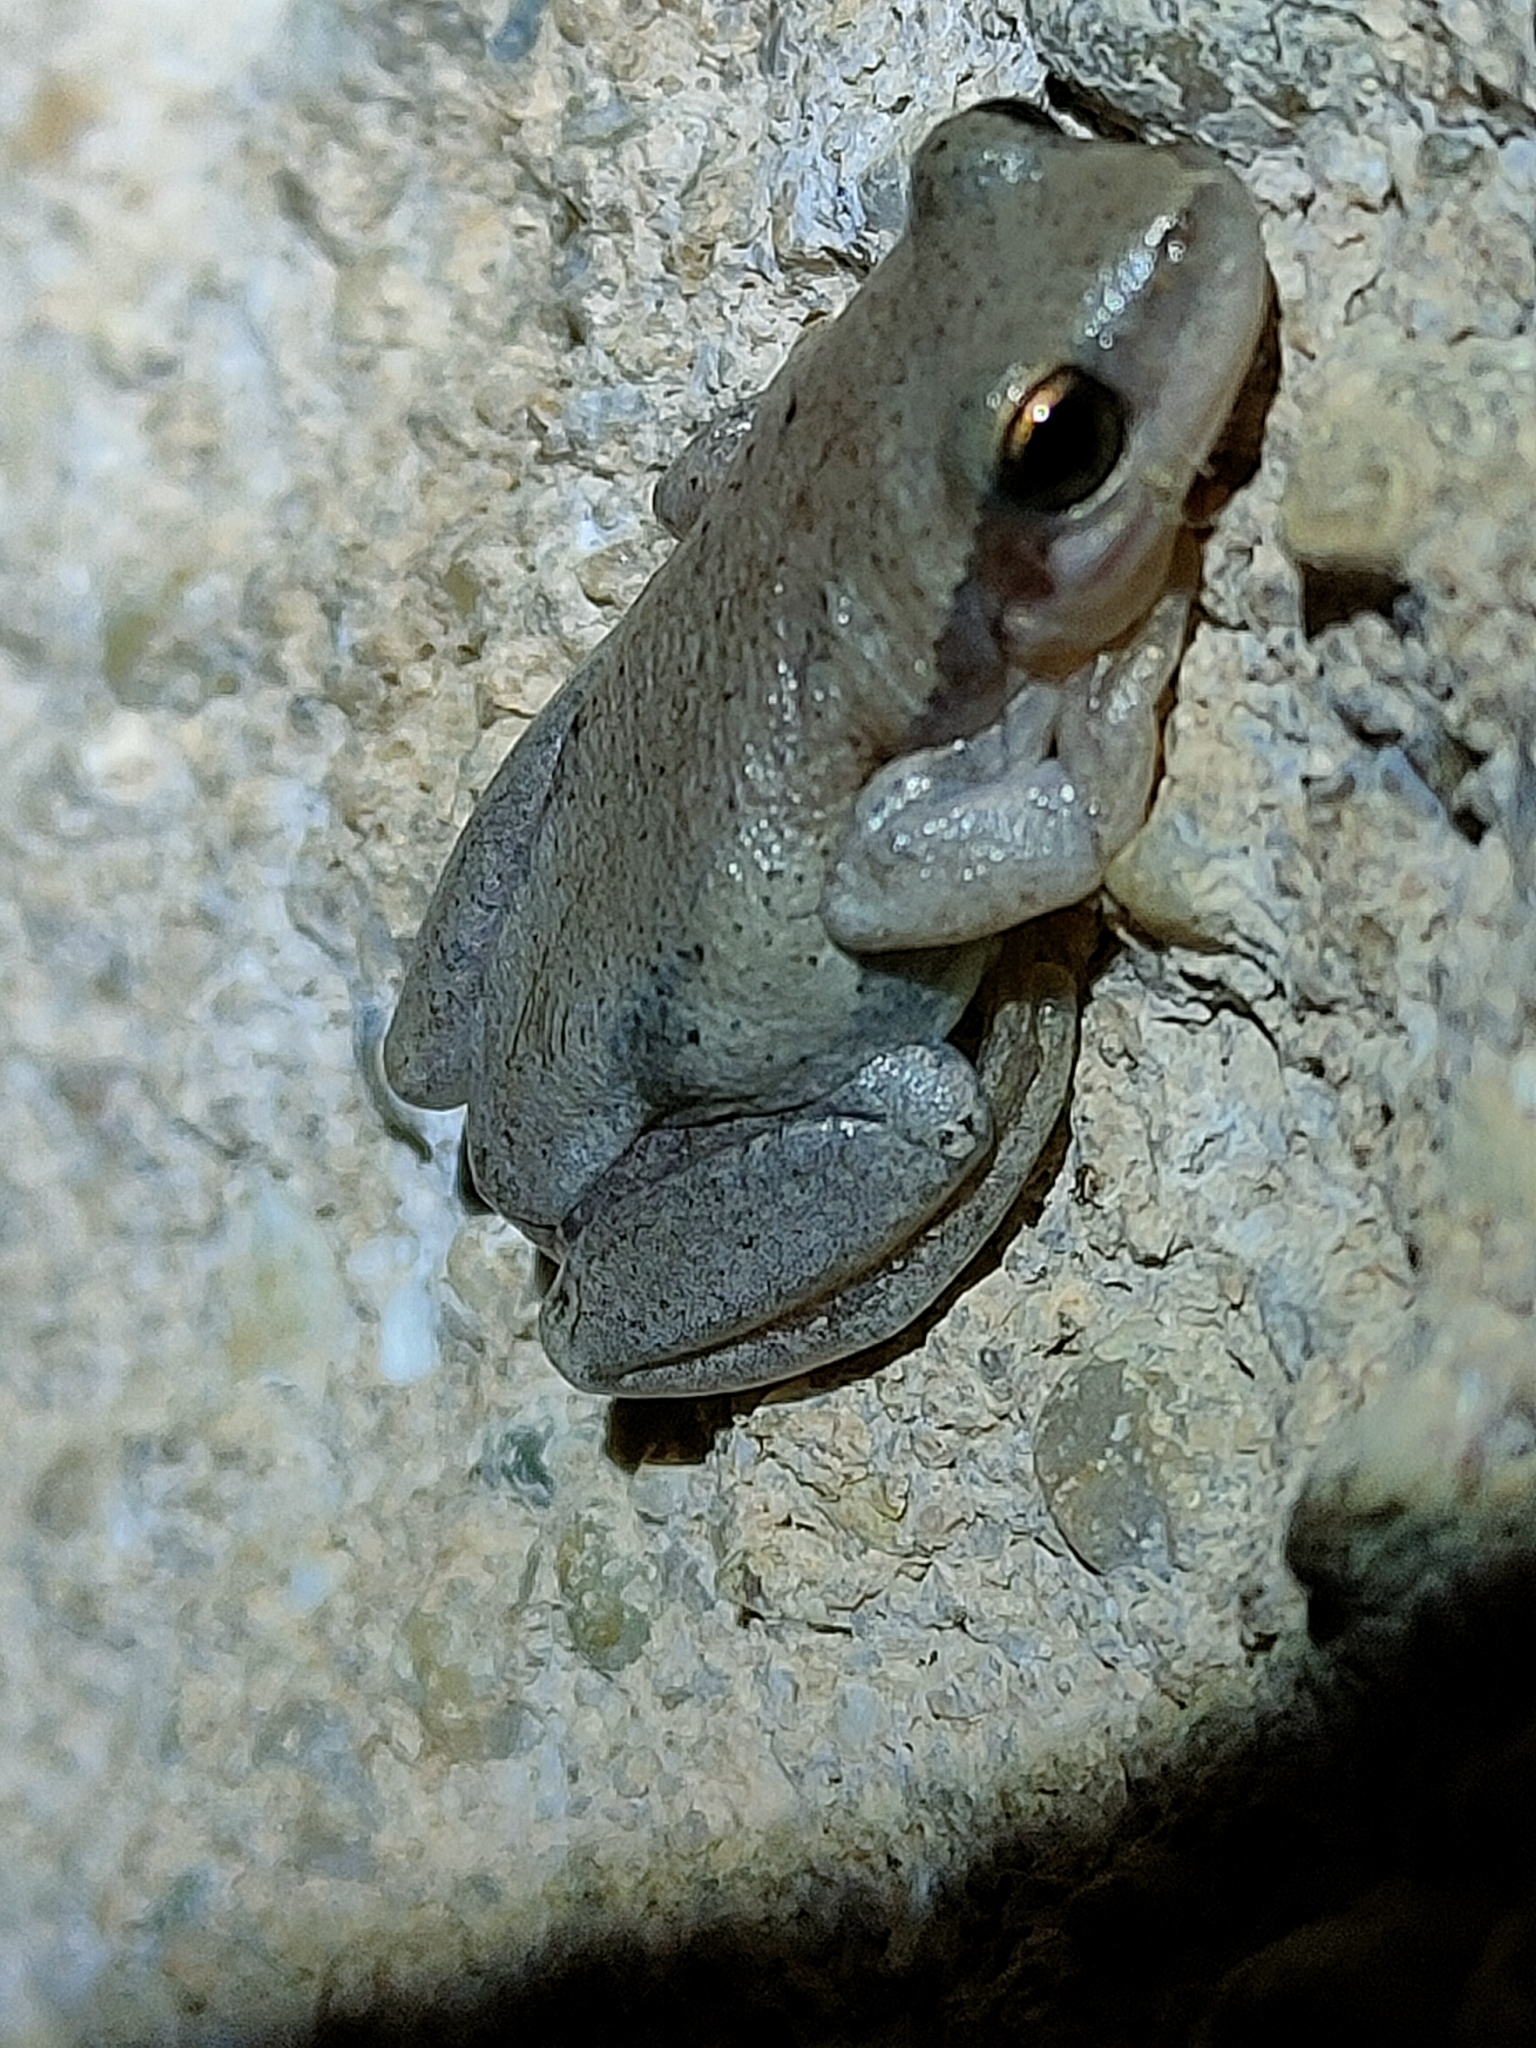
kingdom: Animalia
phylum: Chordata
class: Amphibia
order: Anura
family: Pelodryadidae
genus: Litoria
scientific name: Litoria rubella
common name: Desert tree frog
